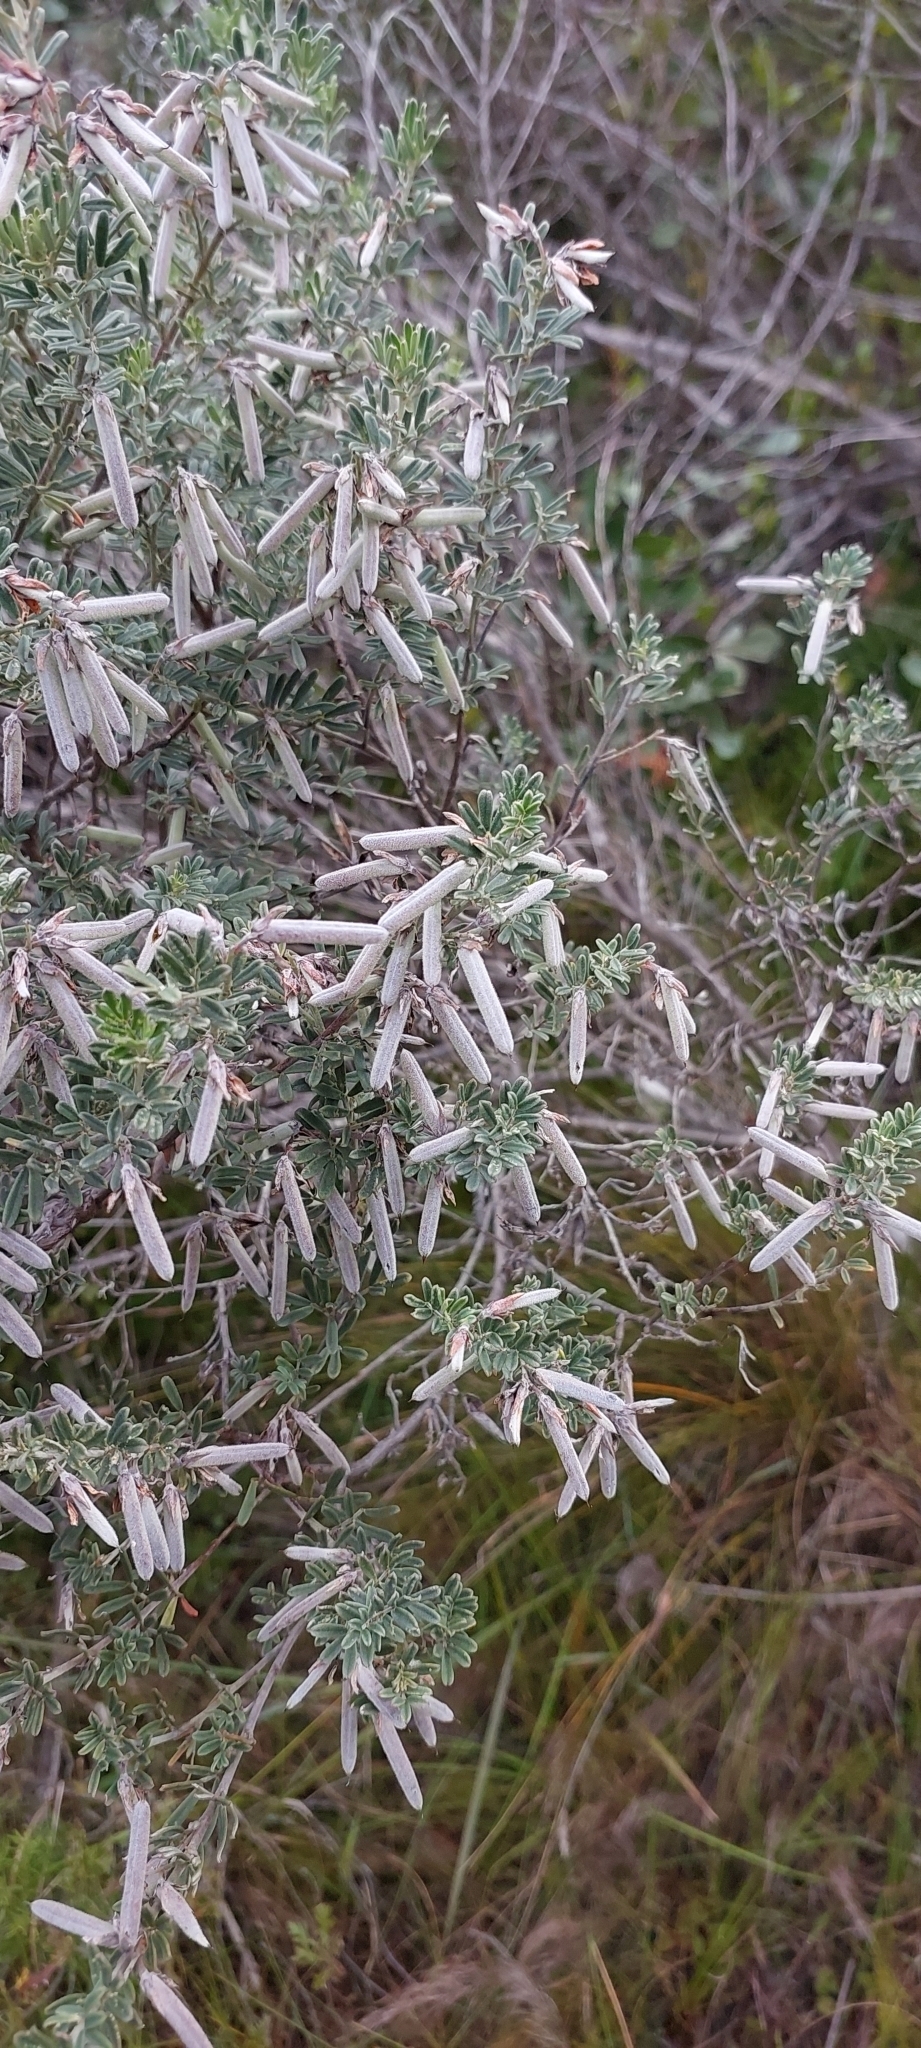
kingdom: Plantae
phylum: Tracheophyta
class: Magnoliopsida
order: Fabales
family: Fabaceae
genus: Indigofera
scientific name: Indigofera brachystachya
